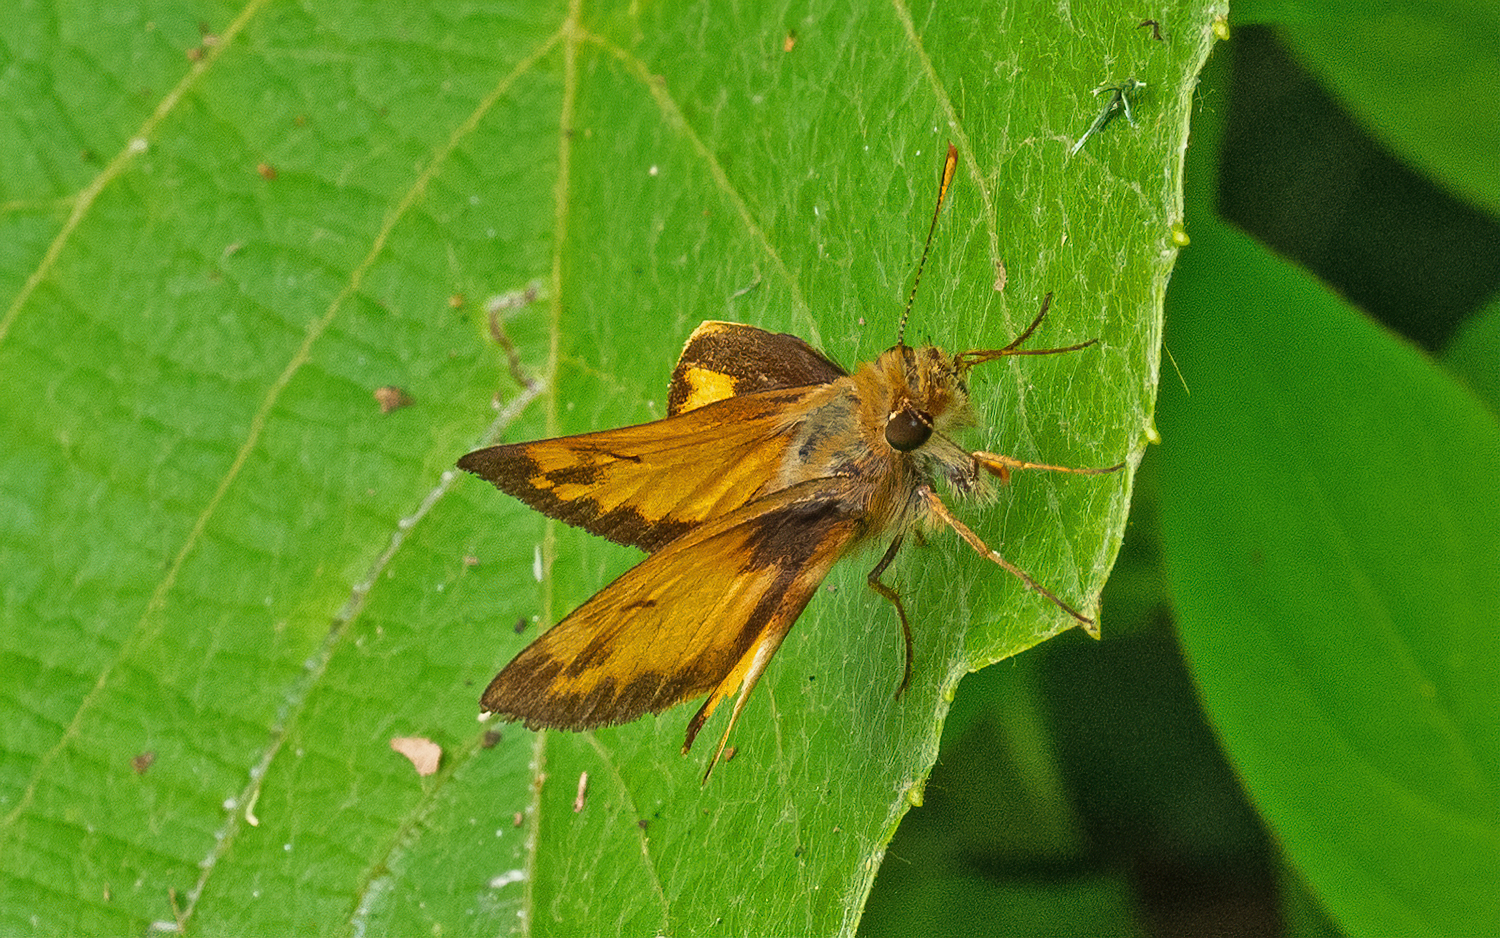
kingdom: Animalia
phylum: Arthropoda
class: Insecta
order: Lepidoptera
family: Hesperiidae
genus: Lon
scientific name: Lon zabulon
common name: Zabulon skipper
